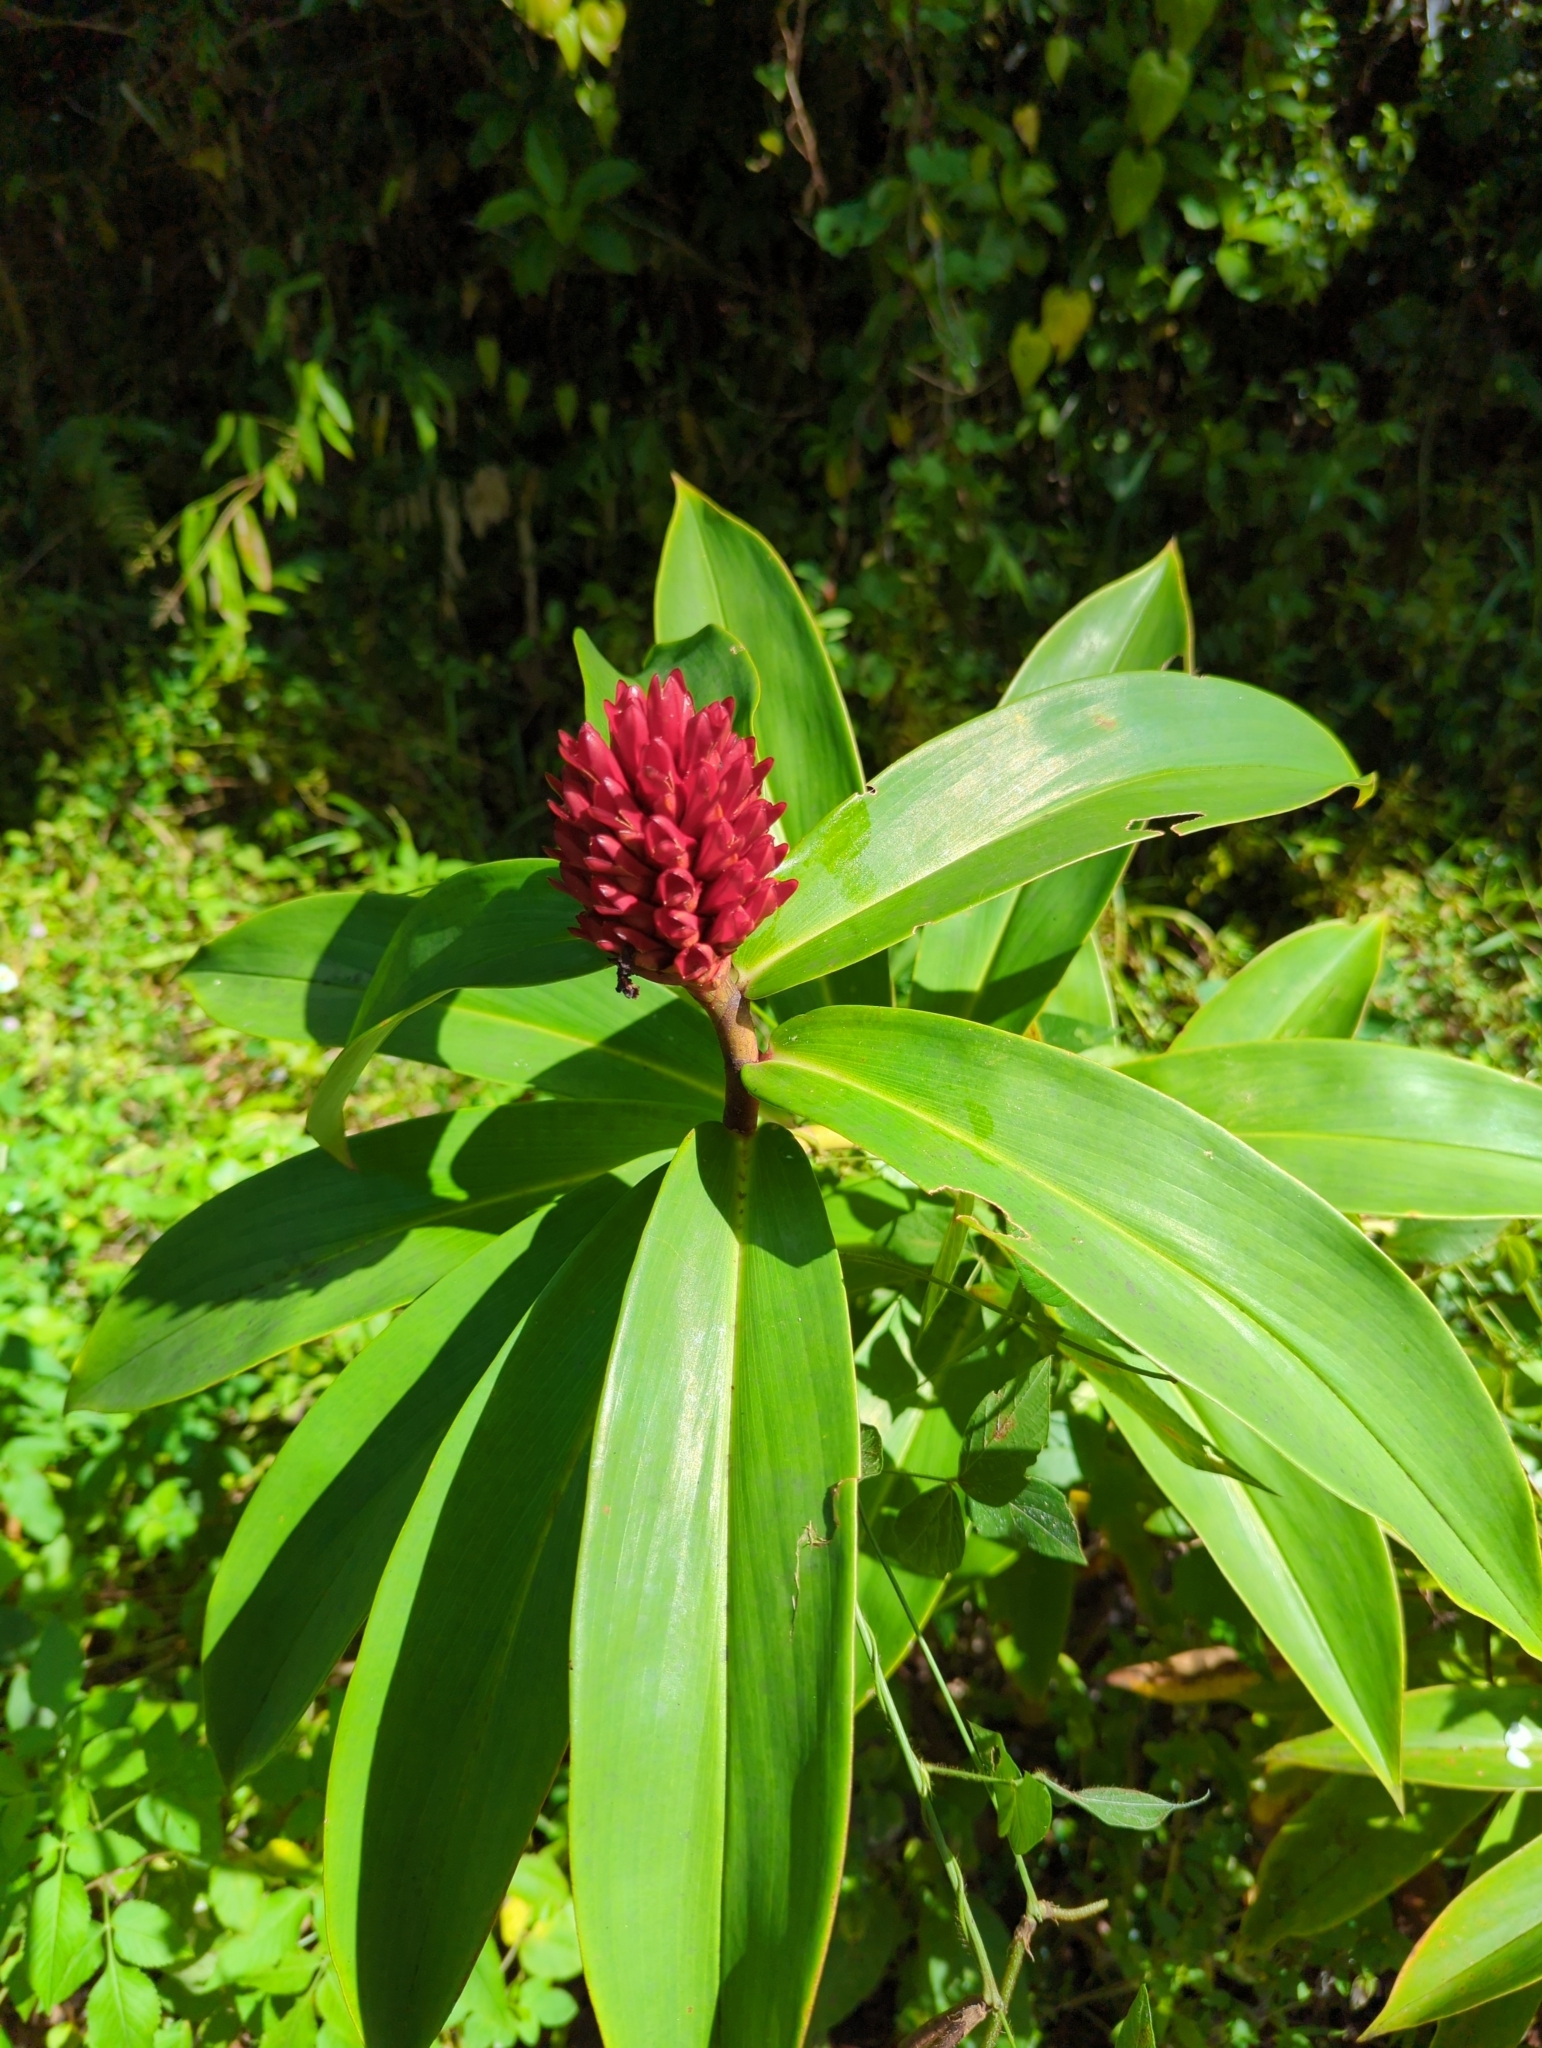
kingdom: Plantae
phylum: Tracheophyta
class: Liliopsida
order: Zingiberales
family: Costaceae
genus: Hellenia
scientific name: Hellenia speciosa
